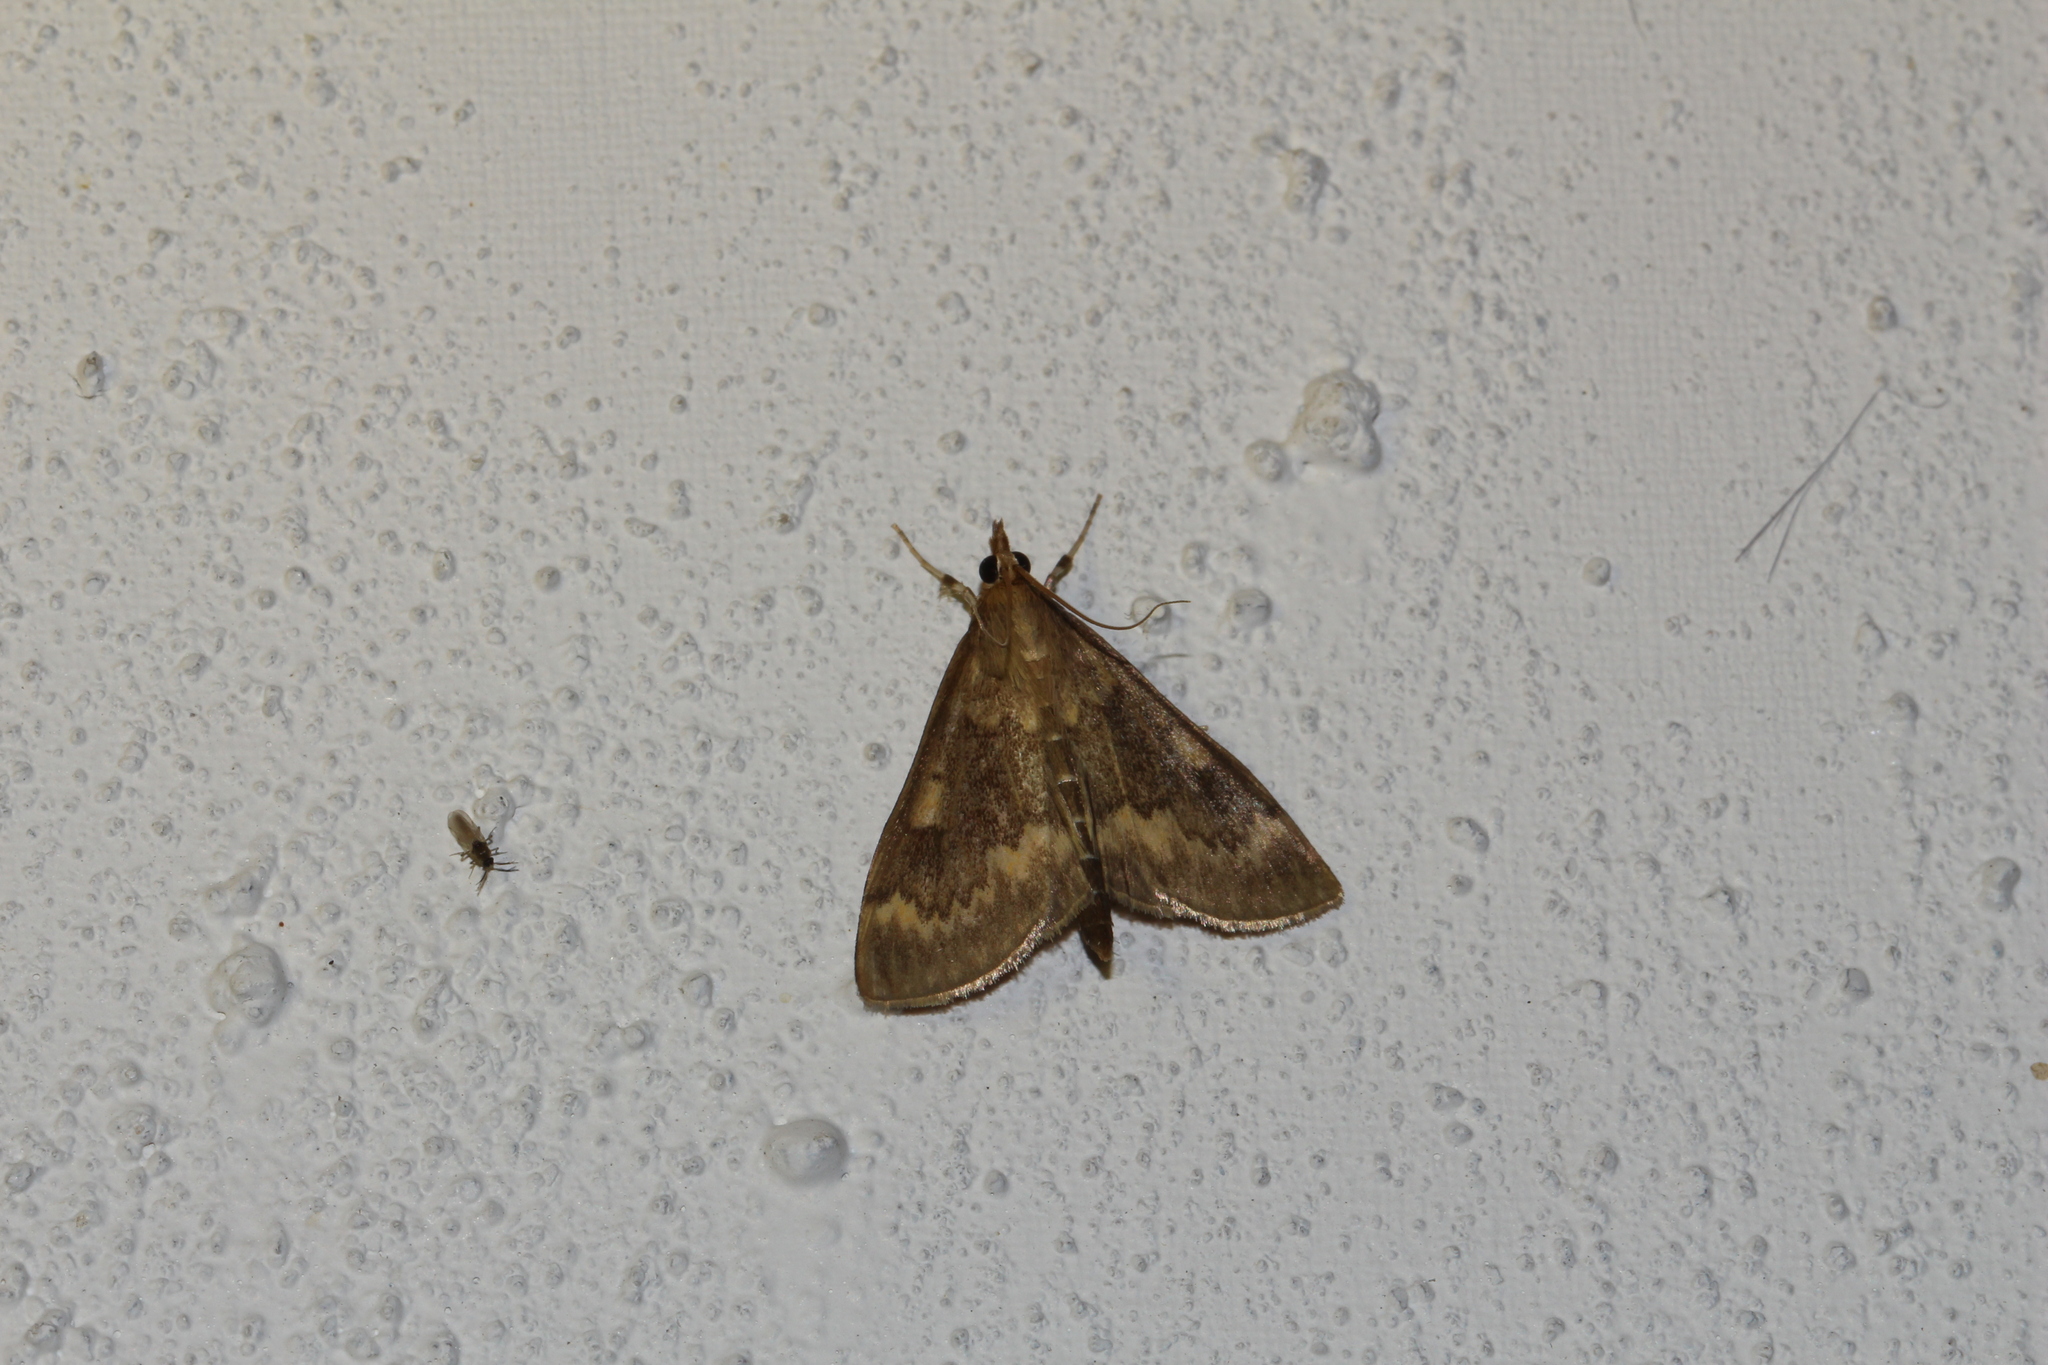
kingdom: Animalia
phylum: Arthropoda
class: Insecta
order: Lepidoptera
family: Crambidae
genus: Ostrinia
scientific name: Ostrinia nubilalis
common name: European corn borer
